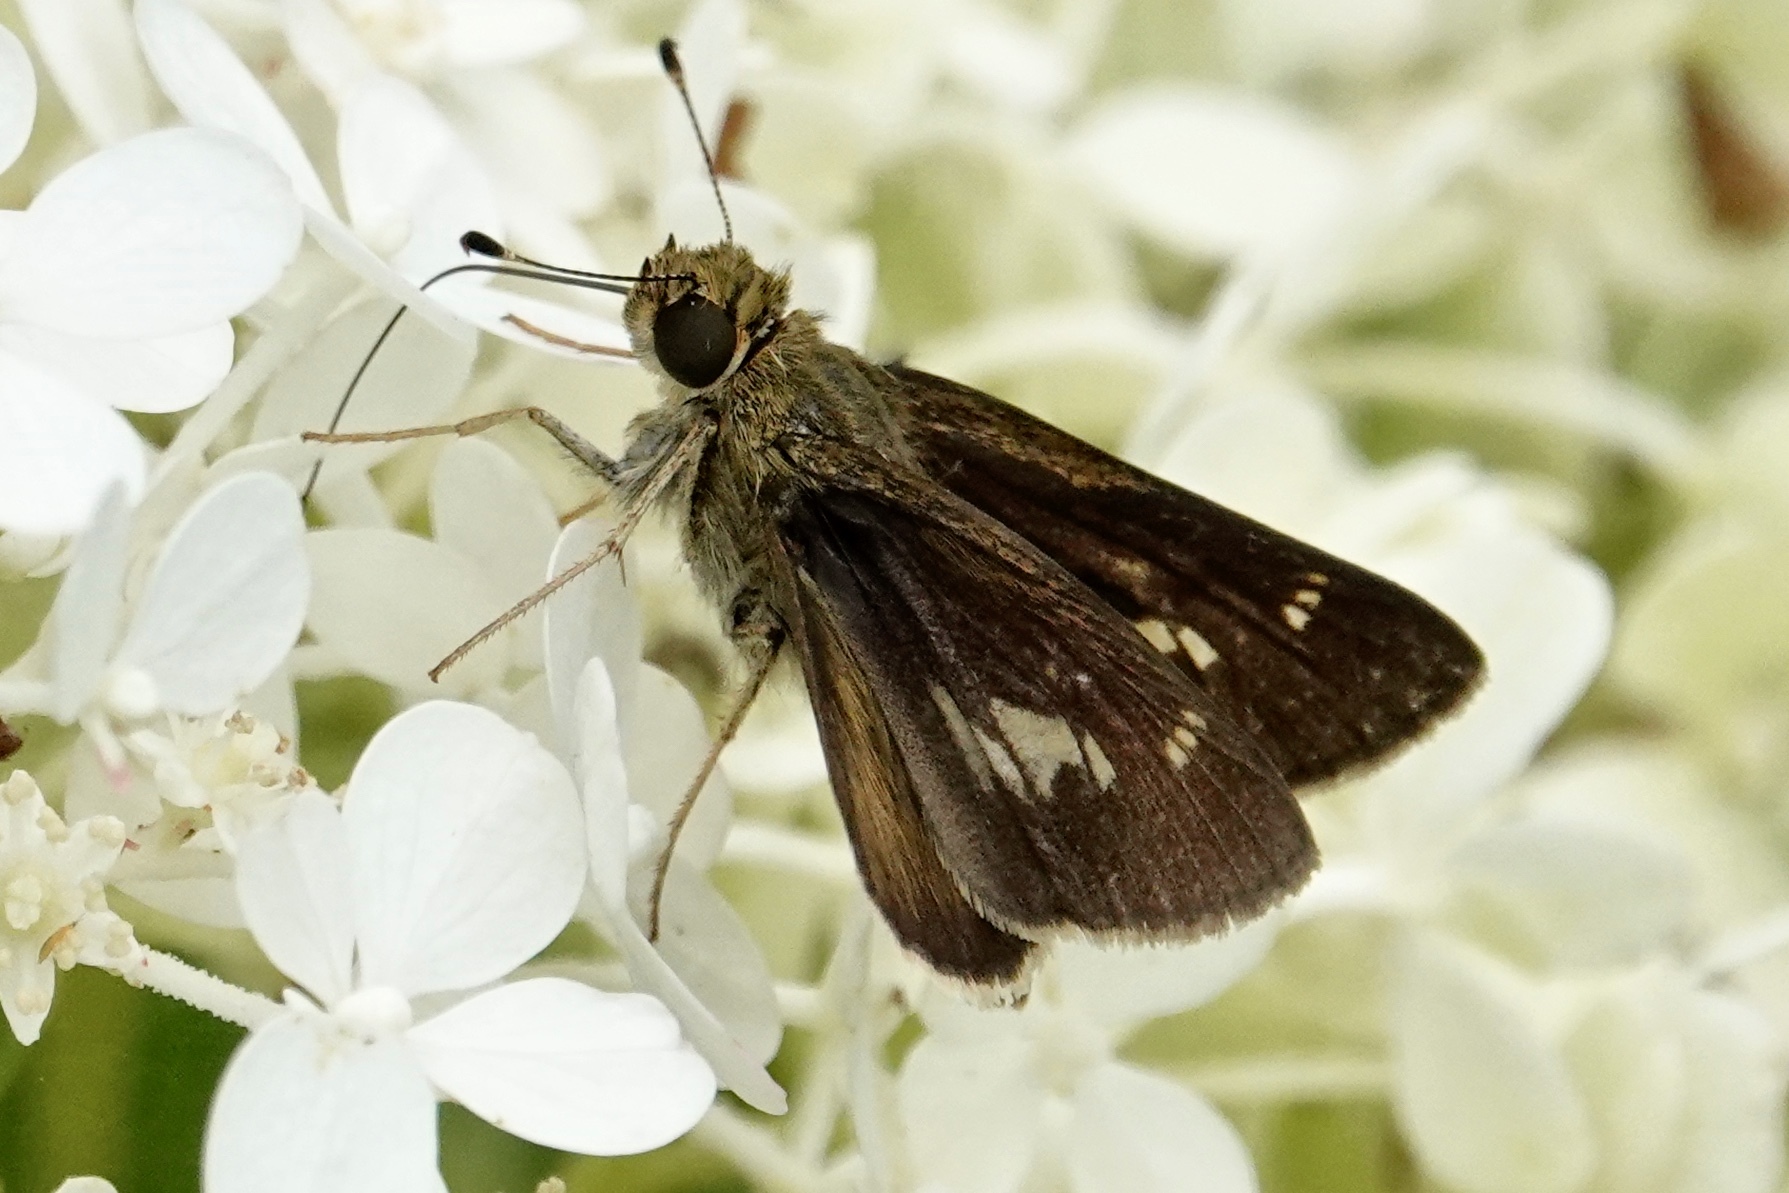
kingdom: Animalia
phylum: Arthropoda
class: Insecta
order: Lepidoptera
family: Hesperiidae
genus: Vernia
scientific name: Vernia verna
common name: Little glassywing
